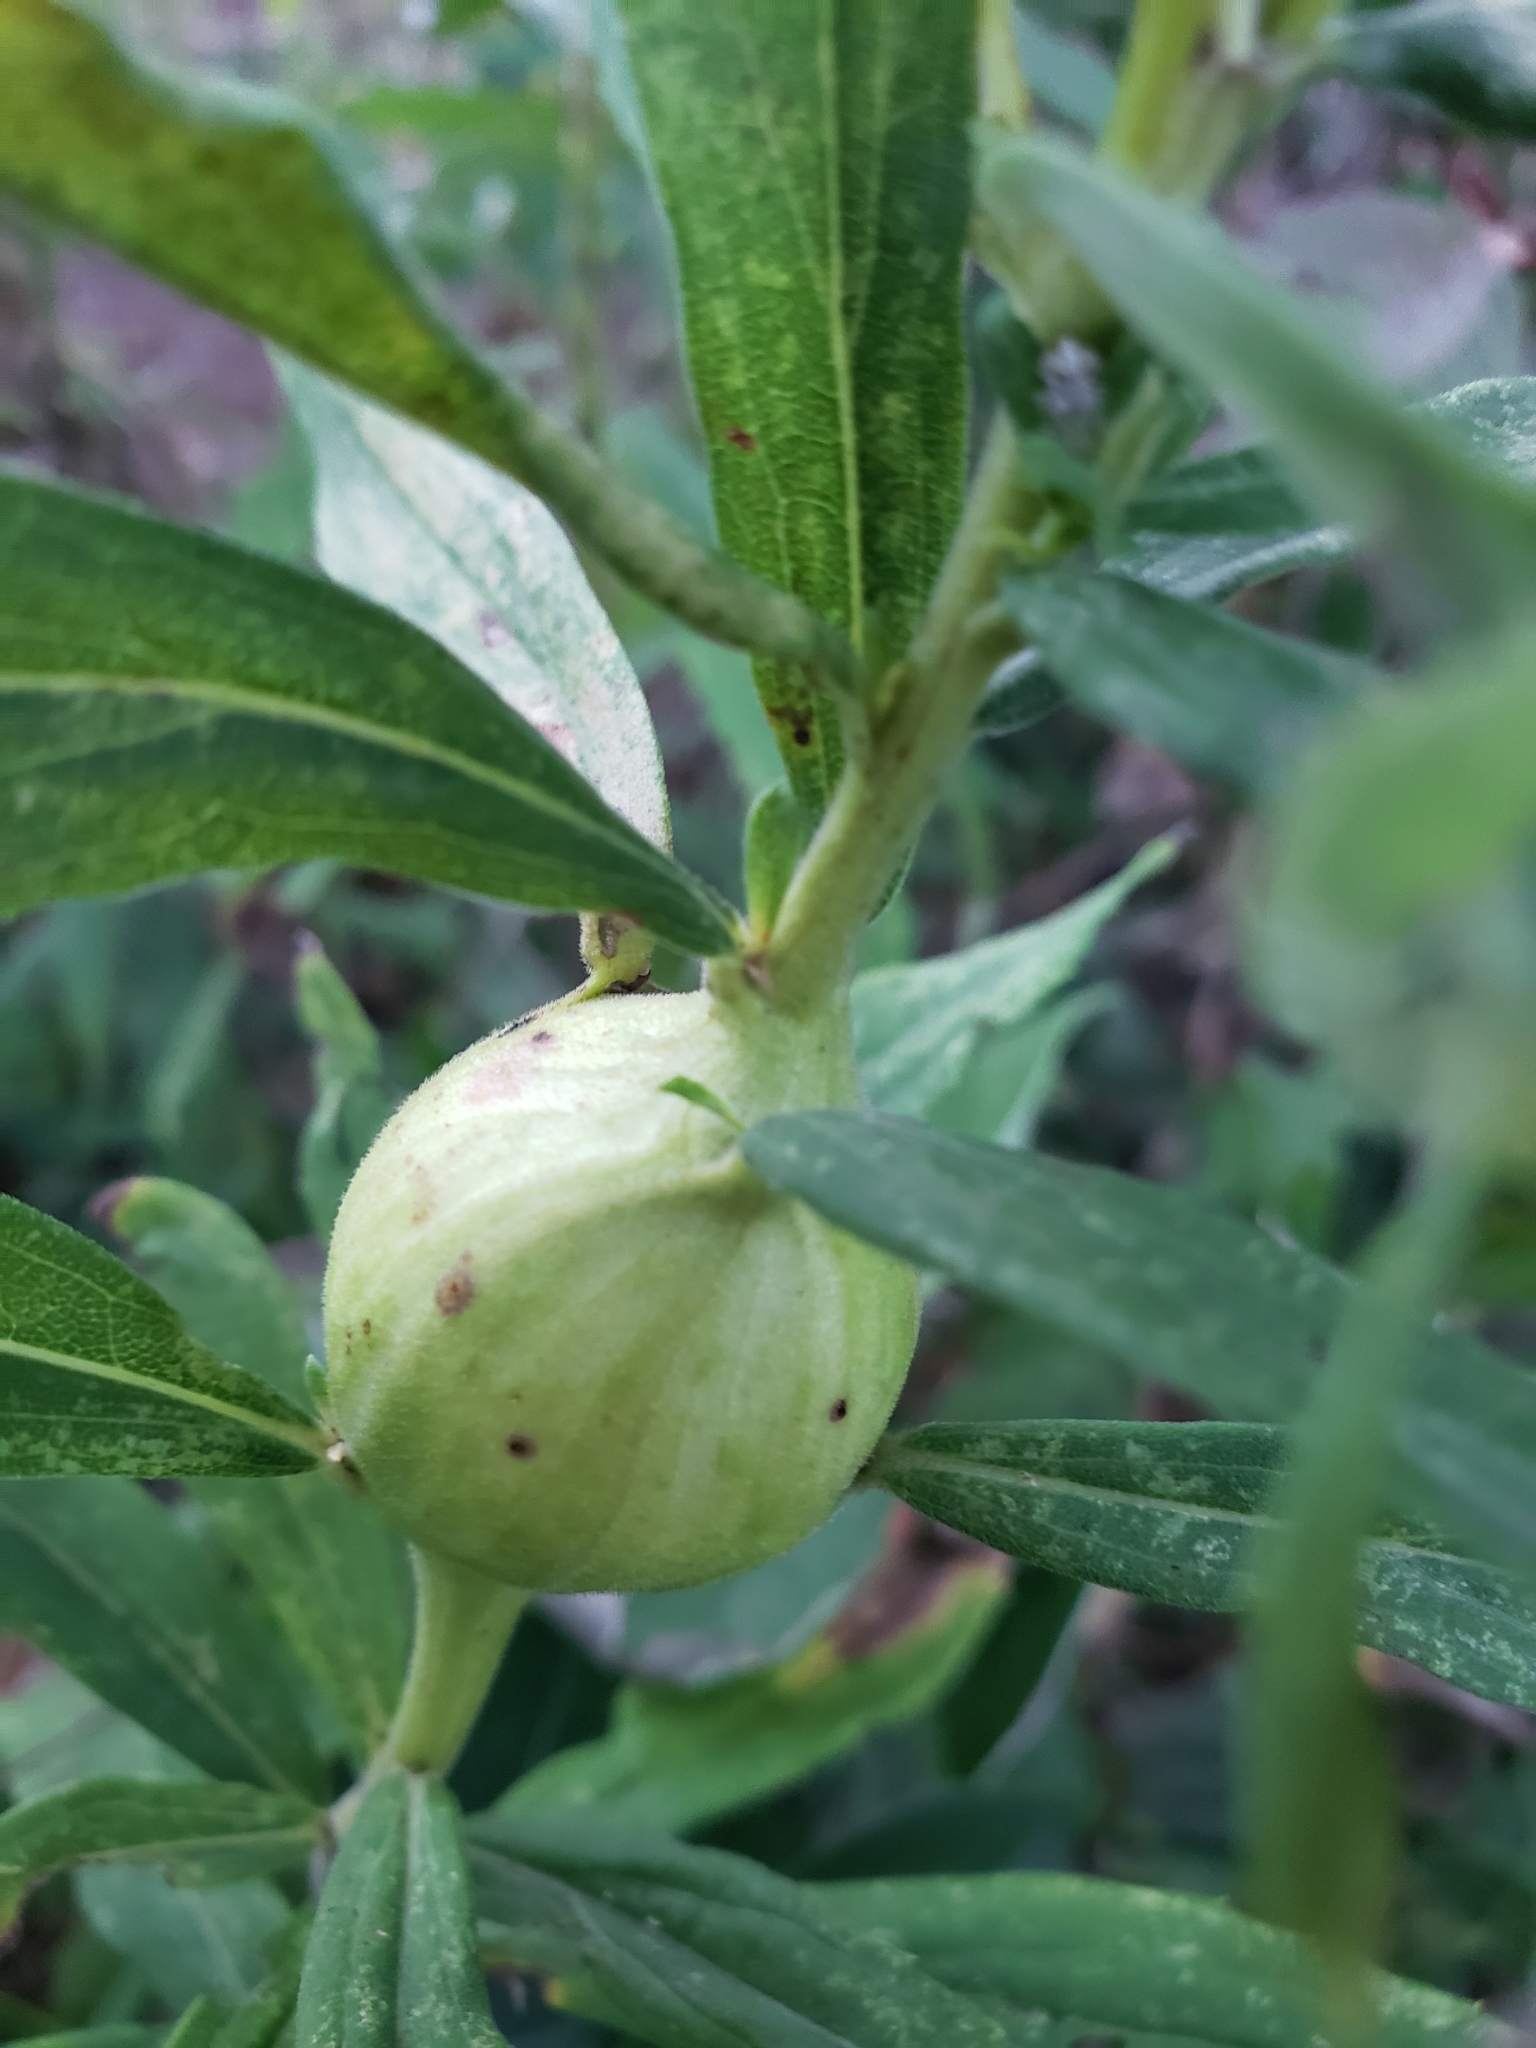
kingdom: Animalia
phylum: Arthropoda
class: Insecta
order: Diptera
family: Tephritidae
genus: Eurosta
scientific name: Eurosta solidaginis
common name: Goldenrod gall fly
